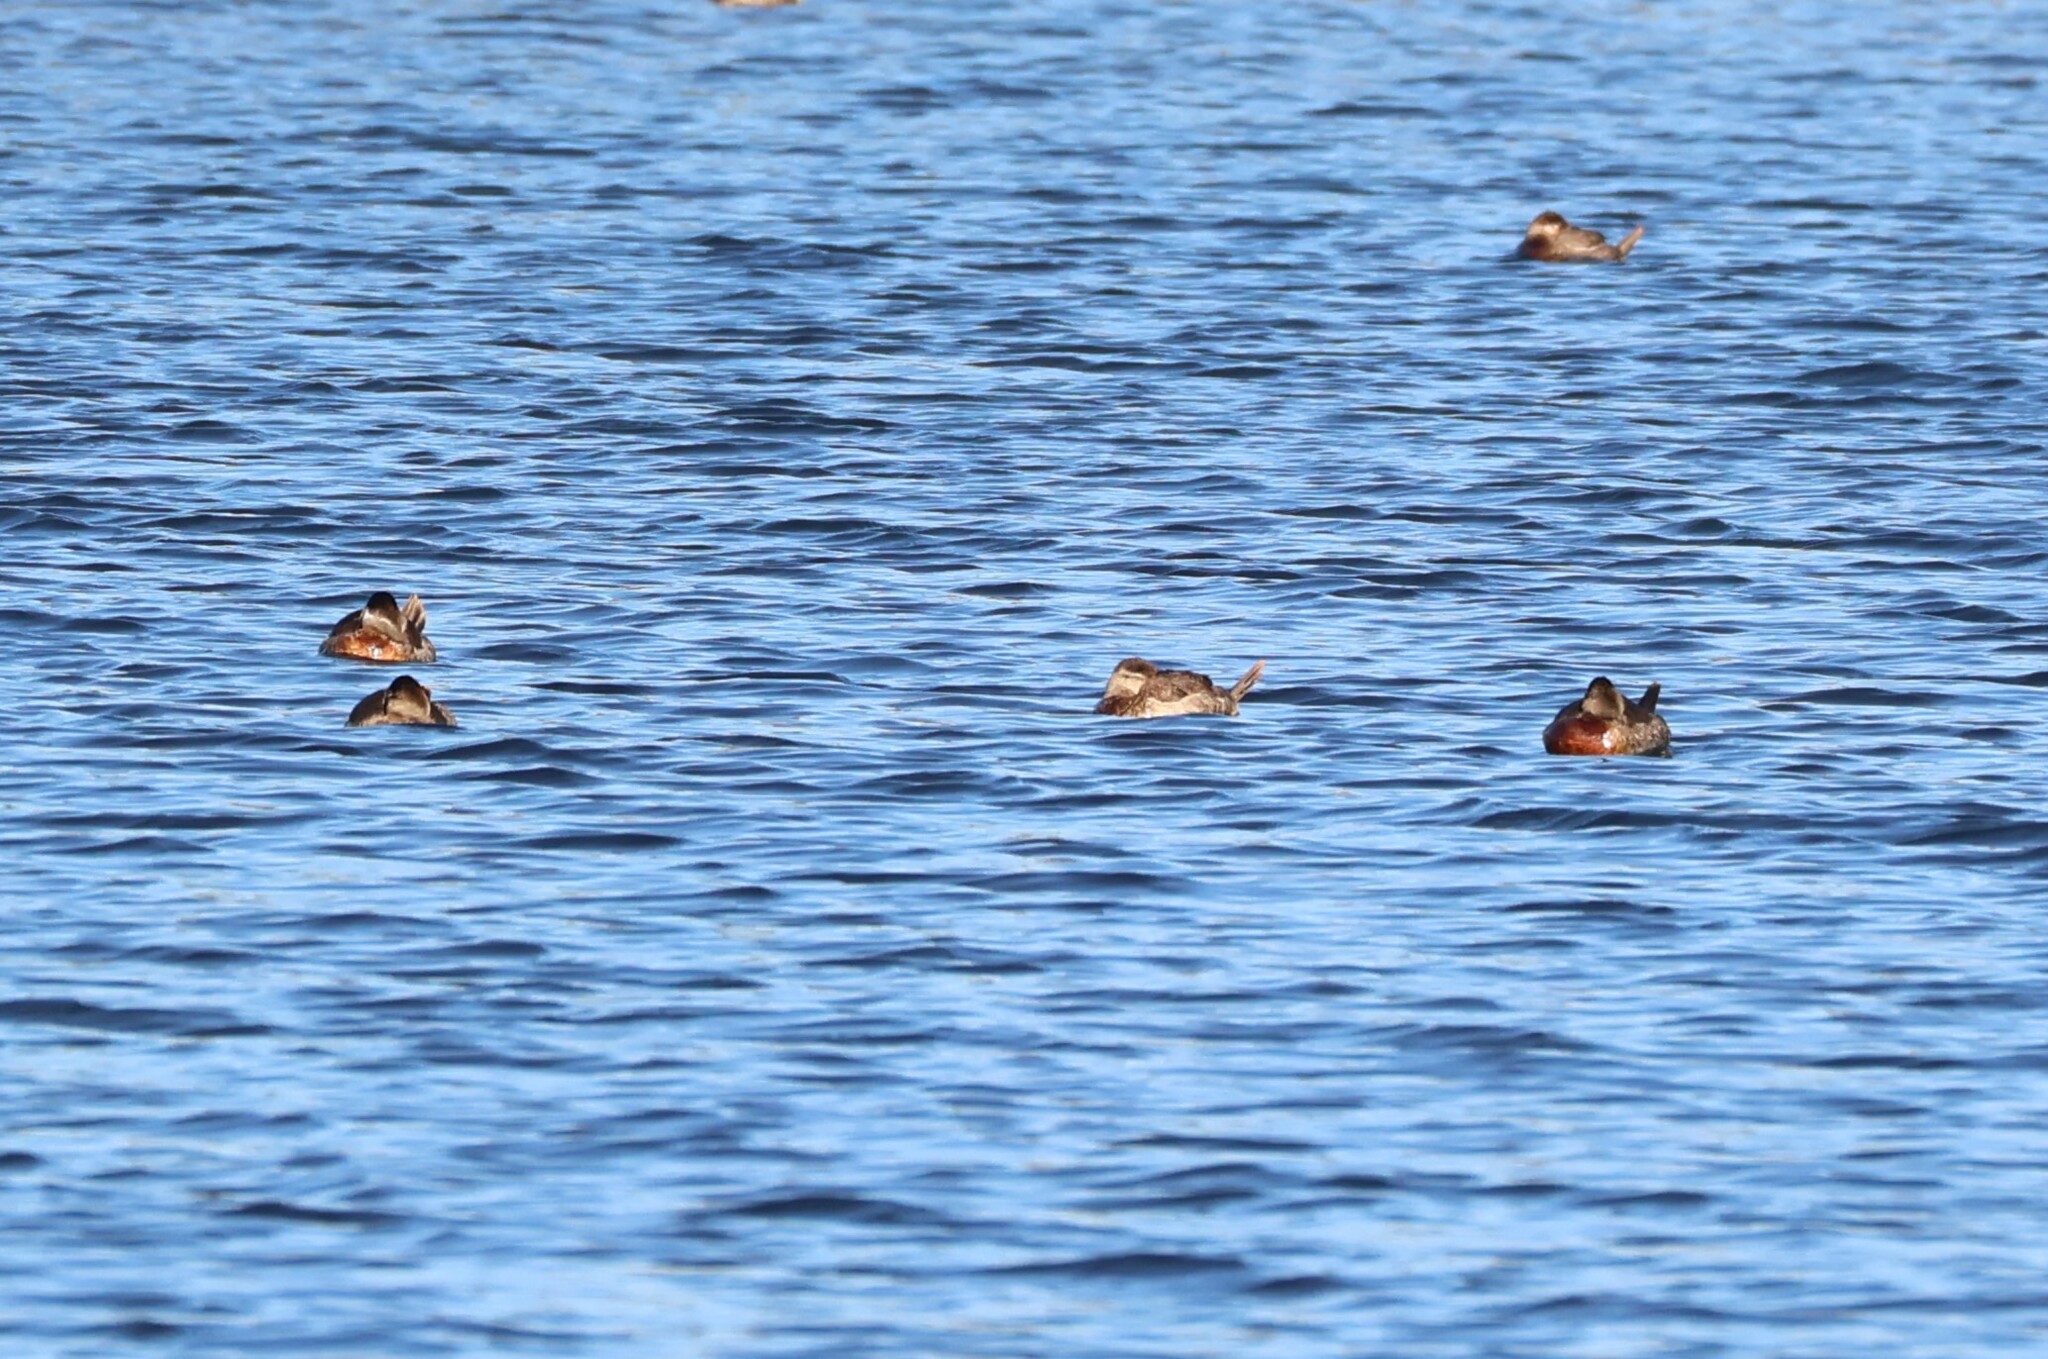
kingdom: Animalia
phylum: Chordata
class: Aves
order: Anseriformes
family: Anatidae
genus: Oxyura
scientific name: Oxyura jamaicensis
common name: Ruddy duck
